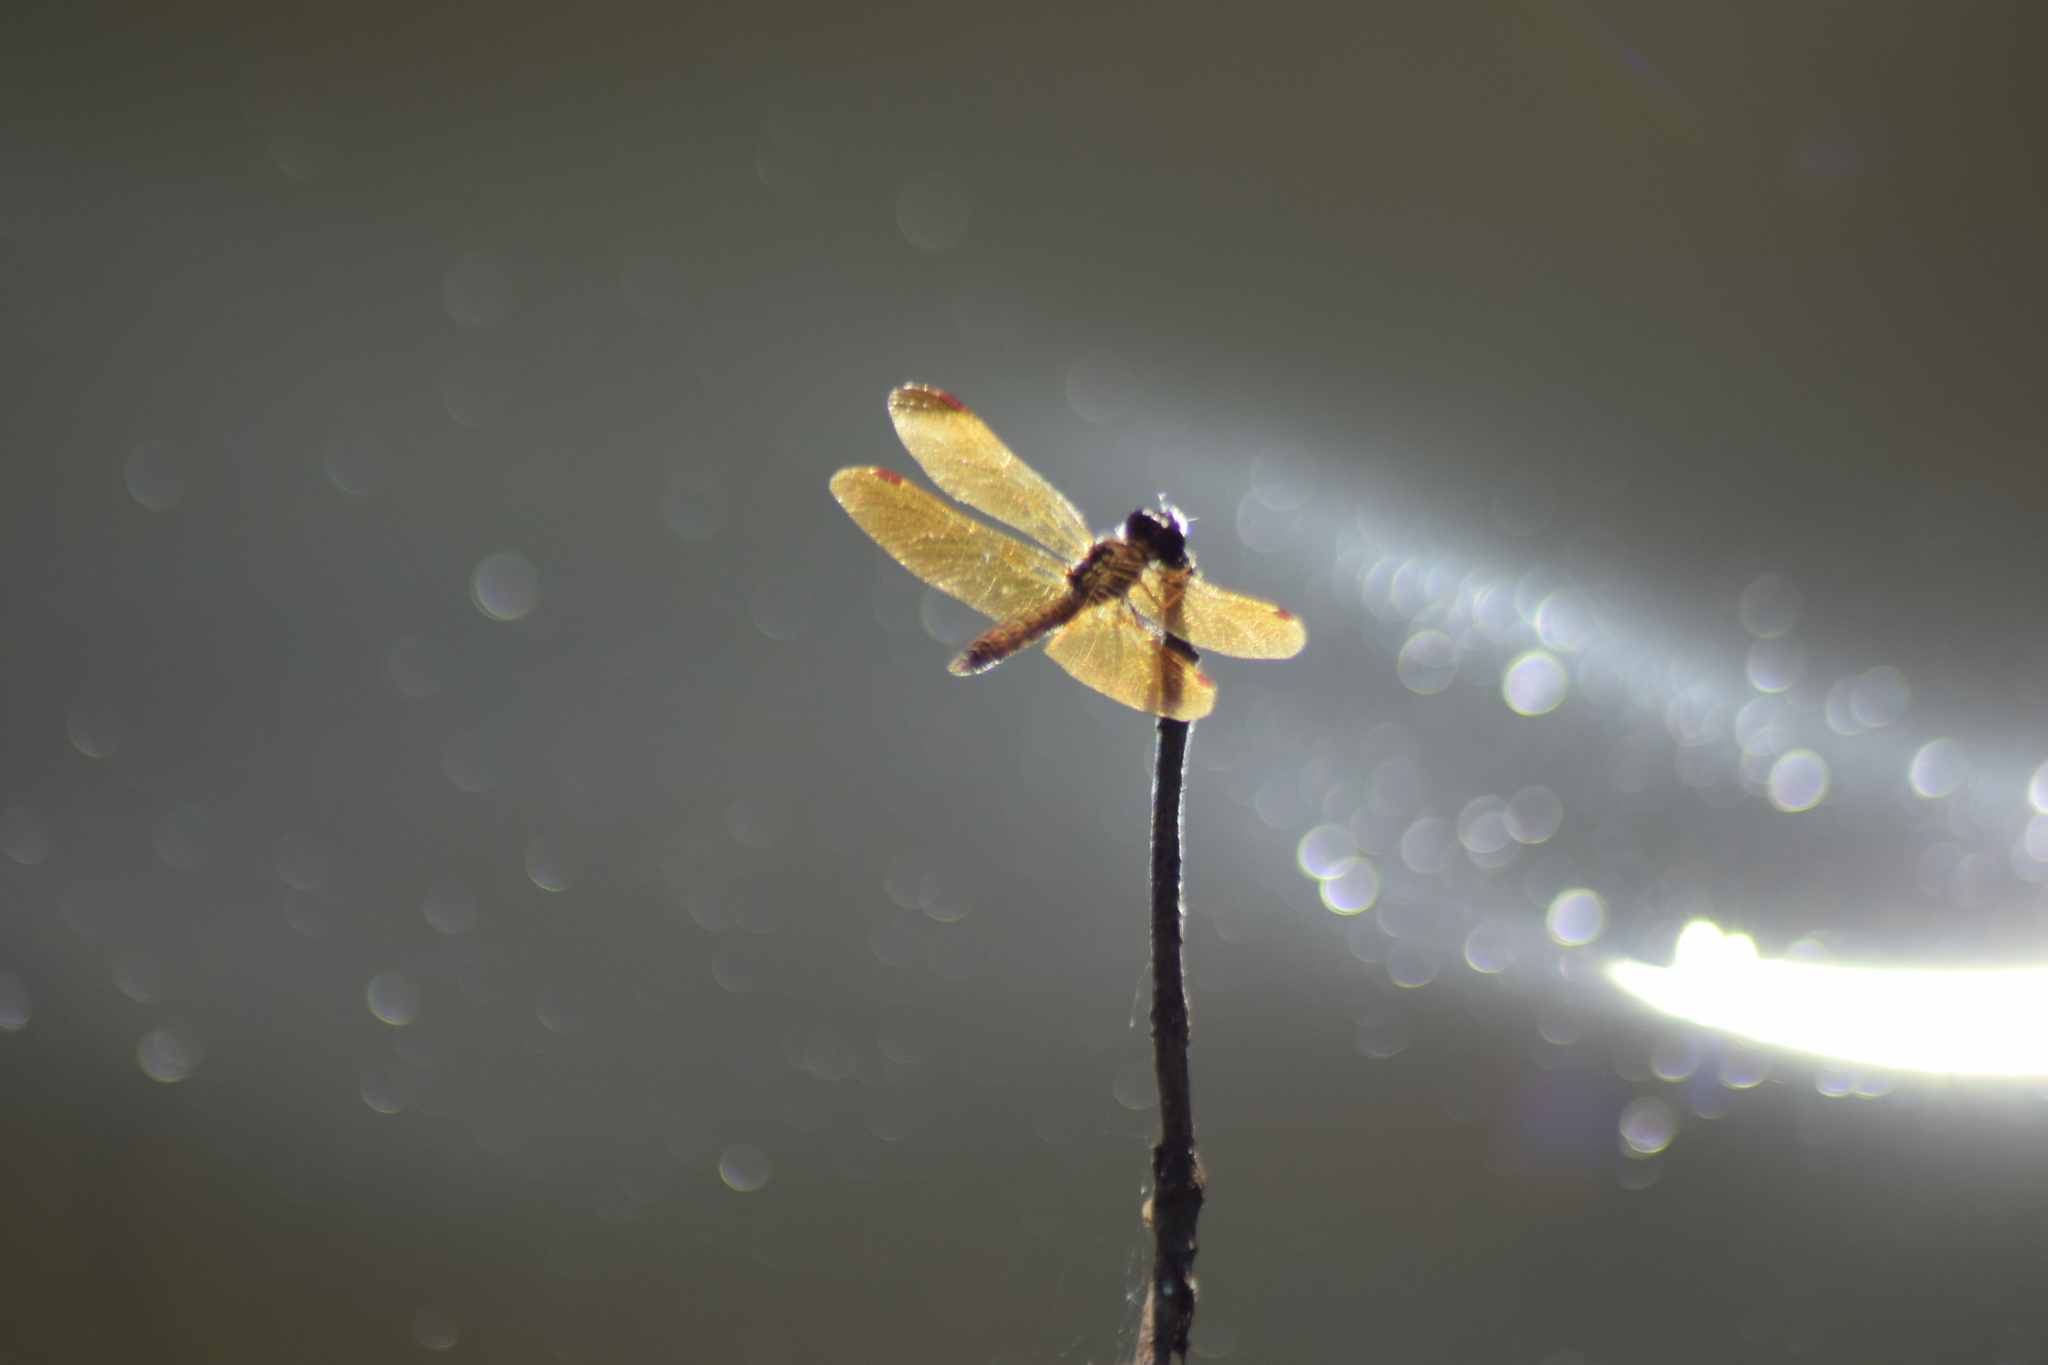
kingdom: Animalia
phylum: Arthropoda
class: Insecta
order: Odonata
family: Libellulidae
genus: Perithemis
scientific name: Perithemis tenera
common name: Eastern amberwing
